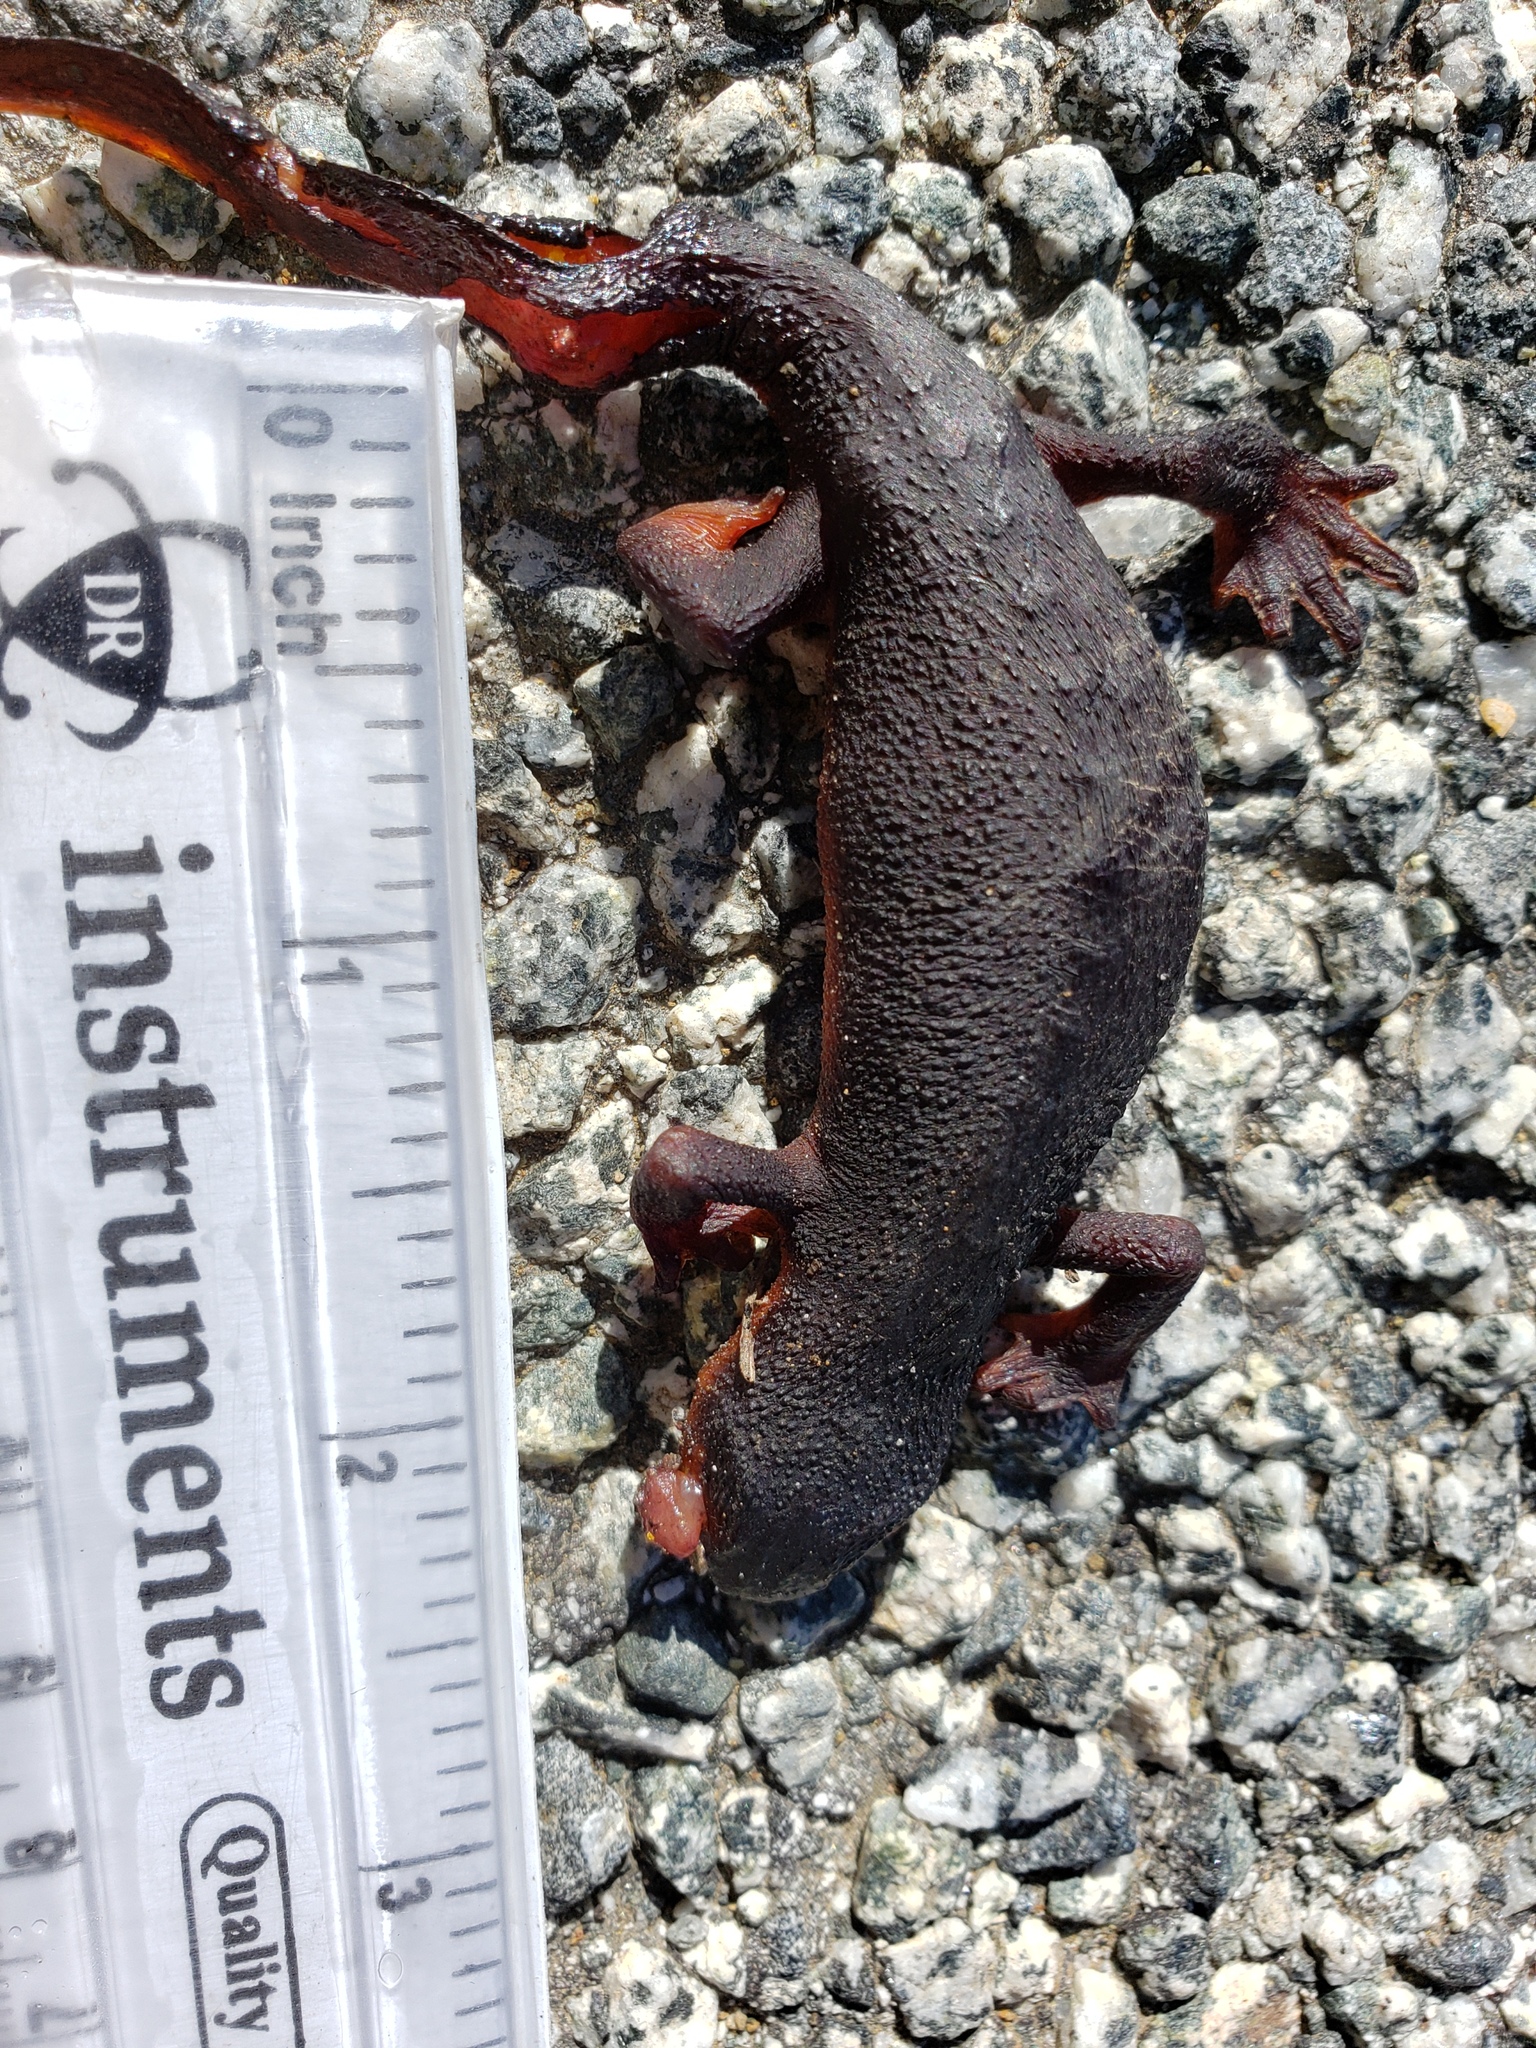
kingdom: Animalia
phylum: Chordata
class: Amphibia
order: Caudata
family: Salamandridae
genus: Taricha
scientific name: Taricha
